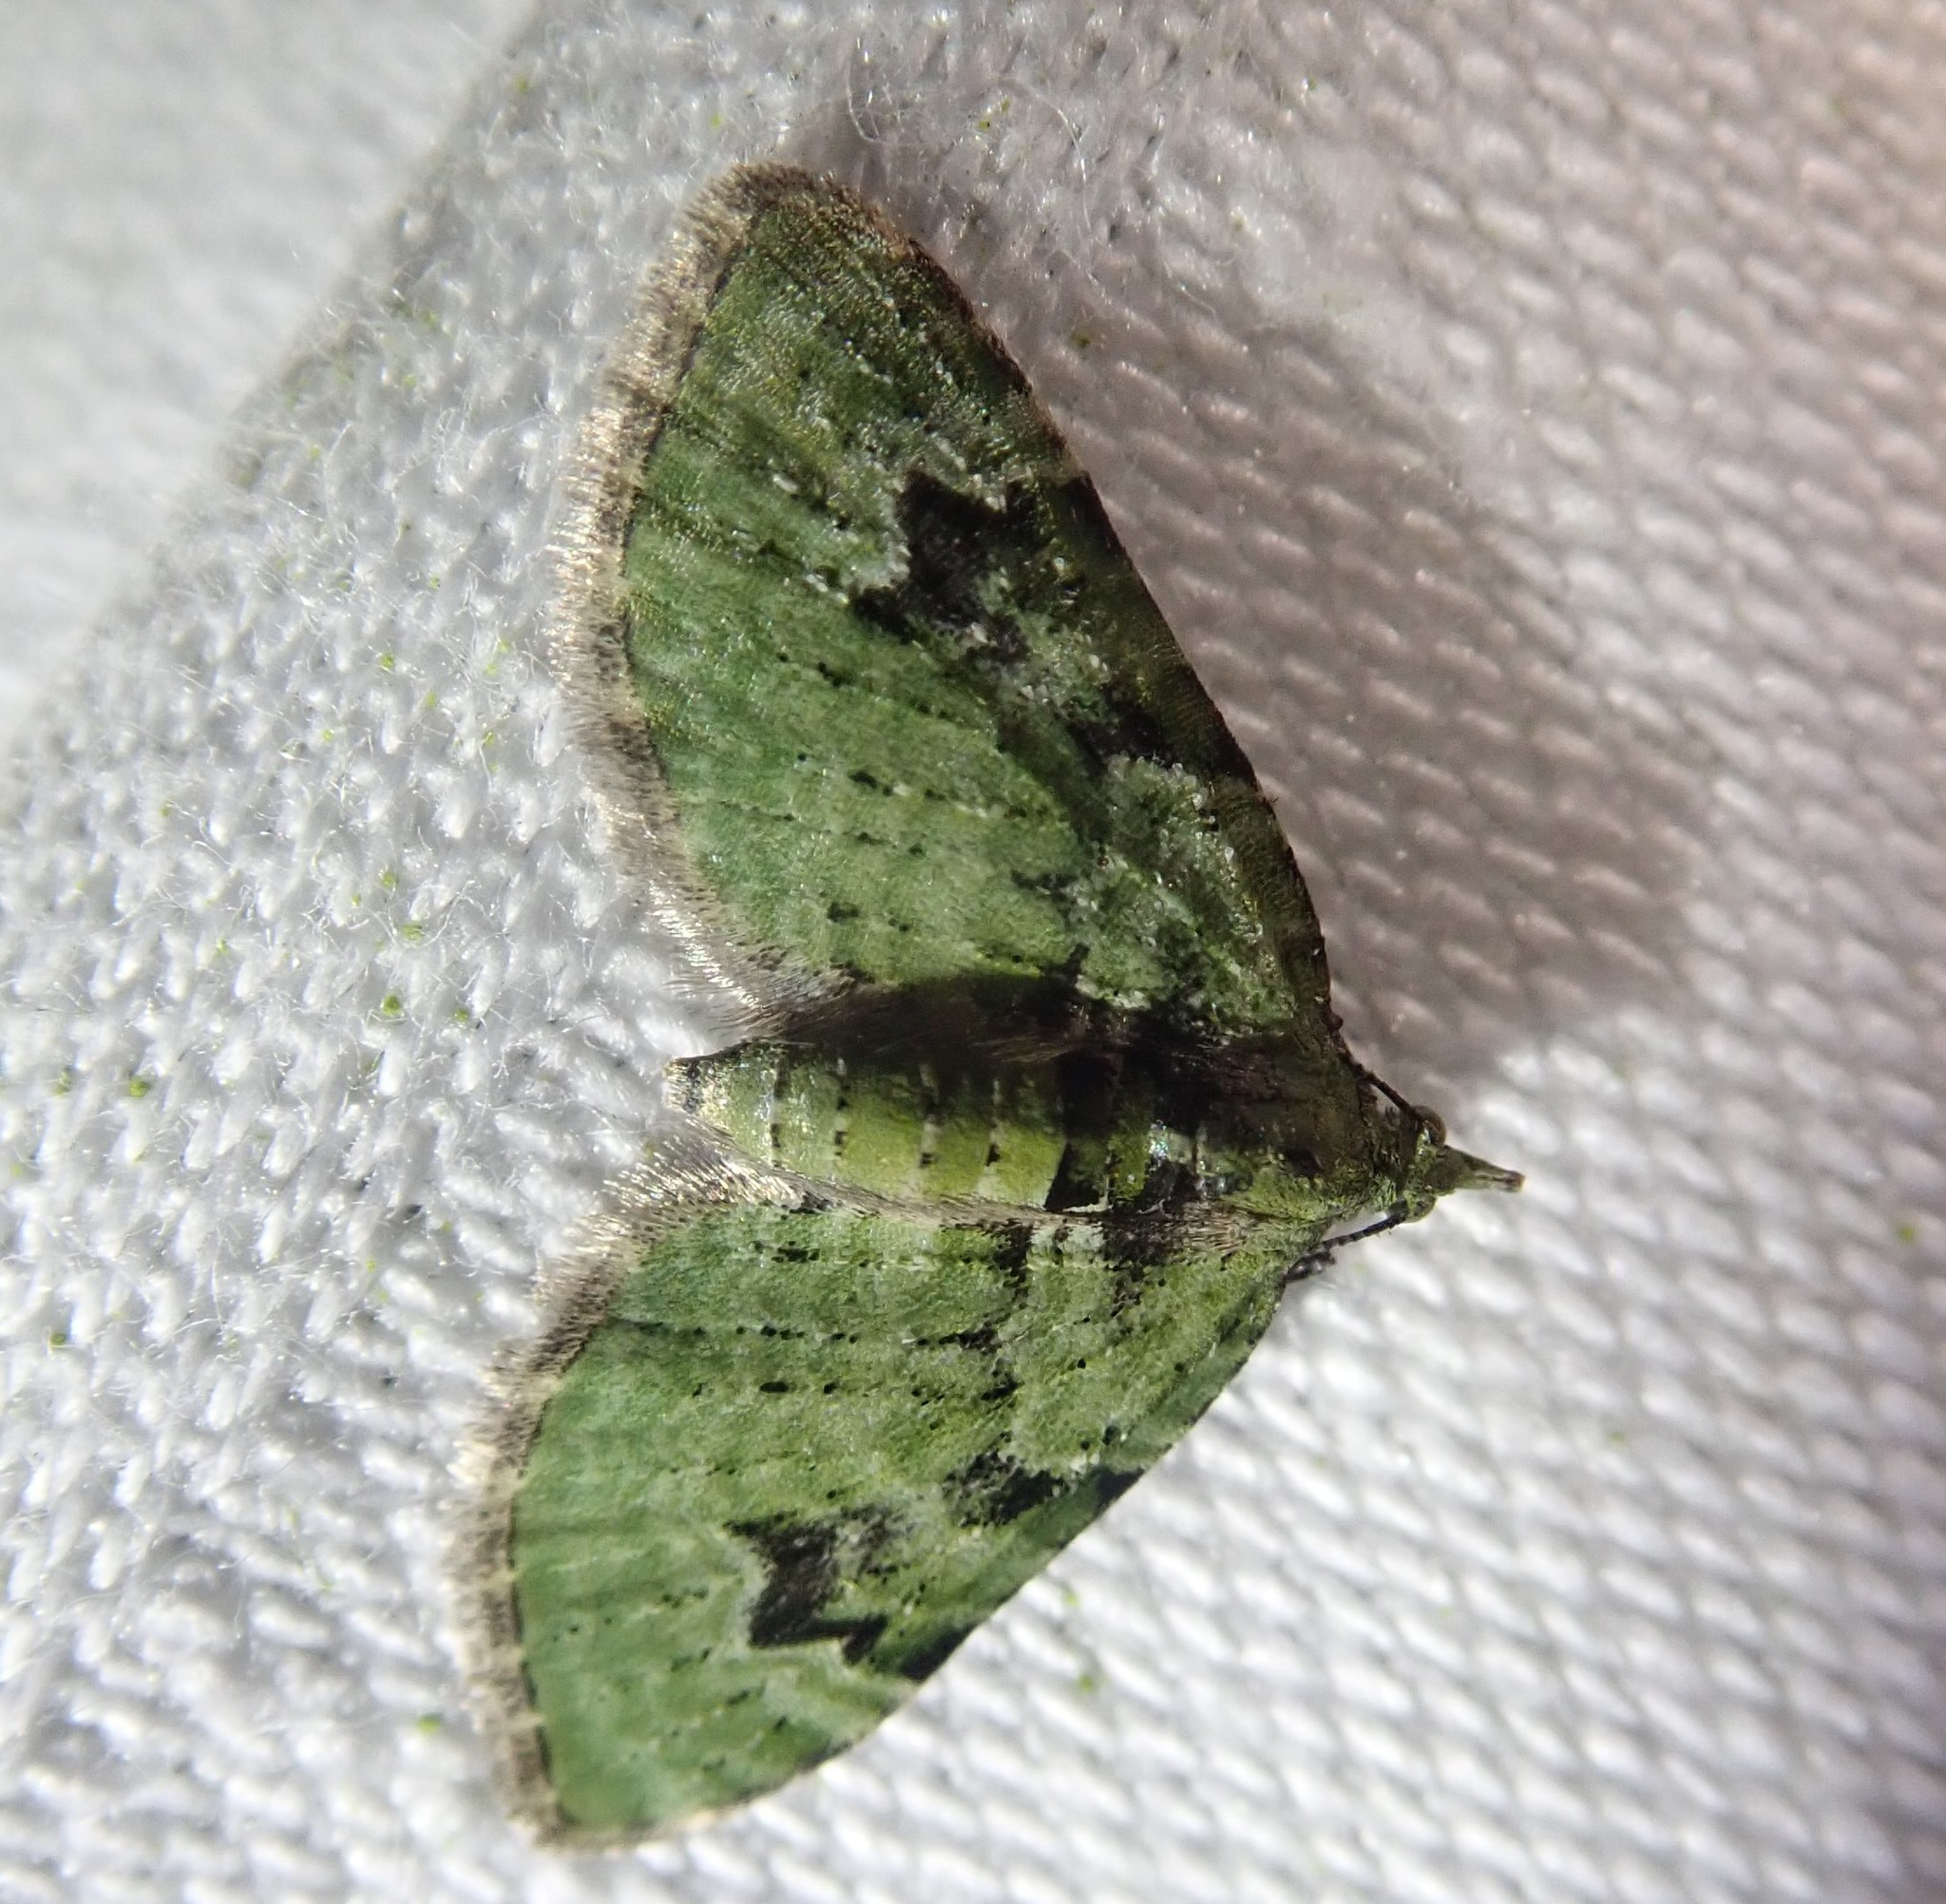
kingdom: Animalia
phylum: Arthropoda
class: Insecta
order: Lepidoptera
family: Geometridae
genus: Chloroclystis
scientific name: Chloroclystis v-ata
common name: V-pug
